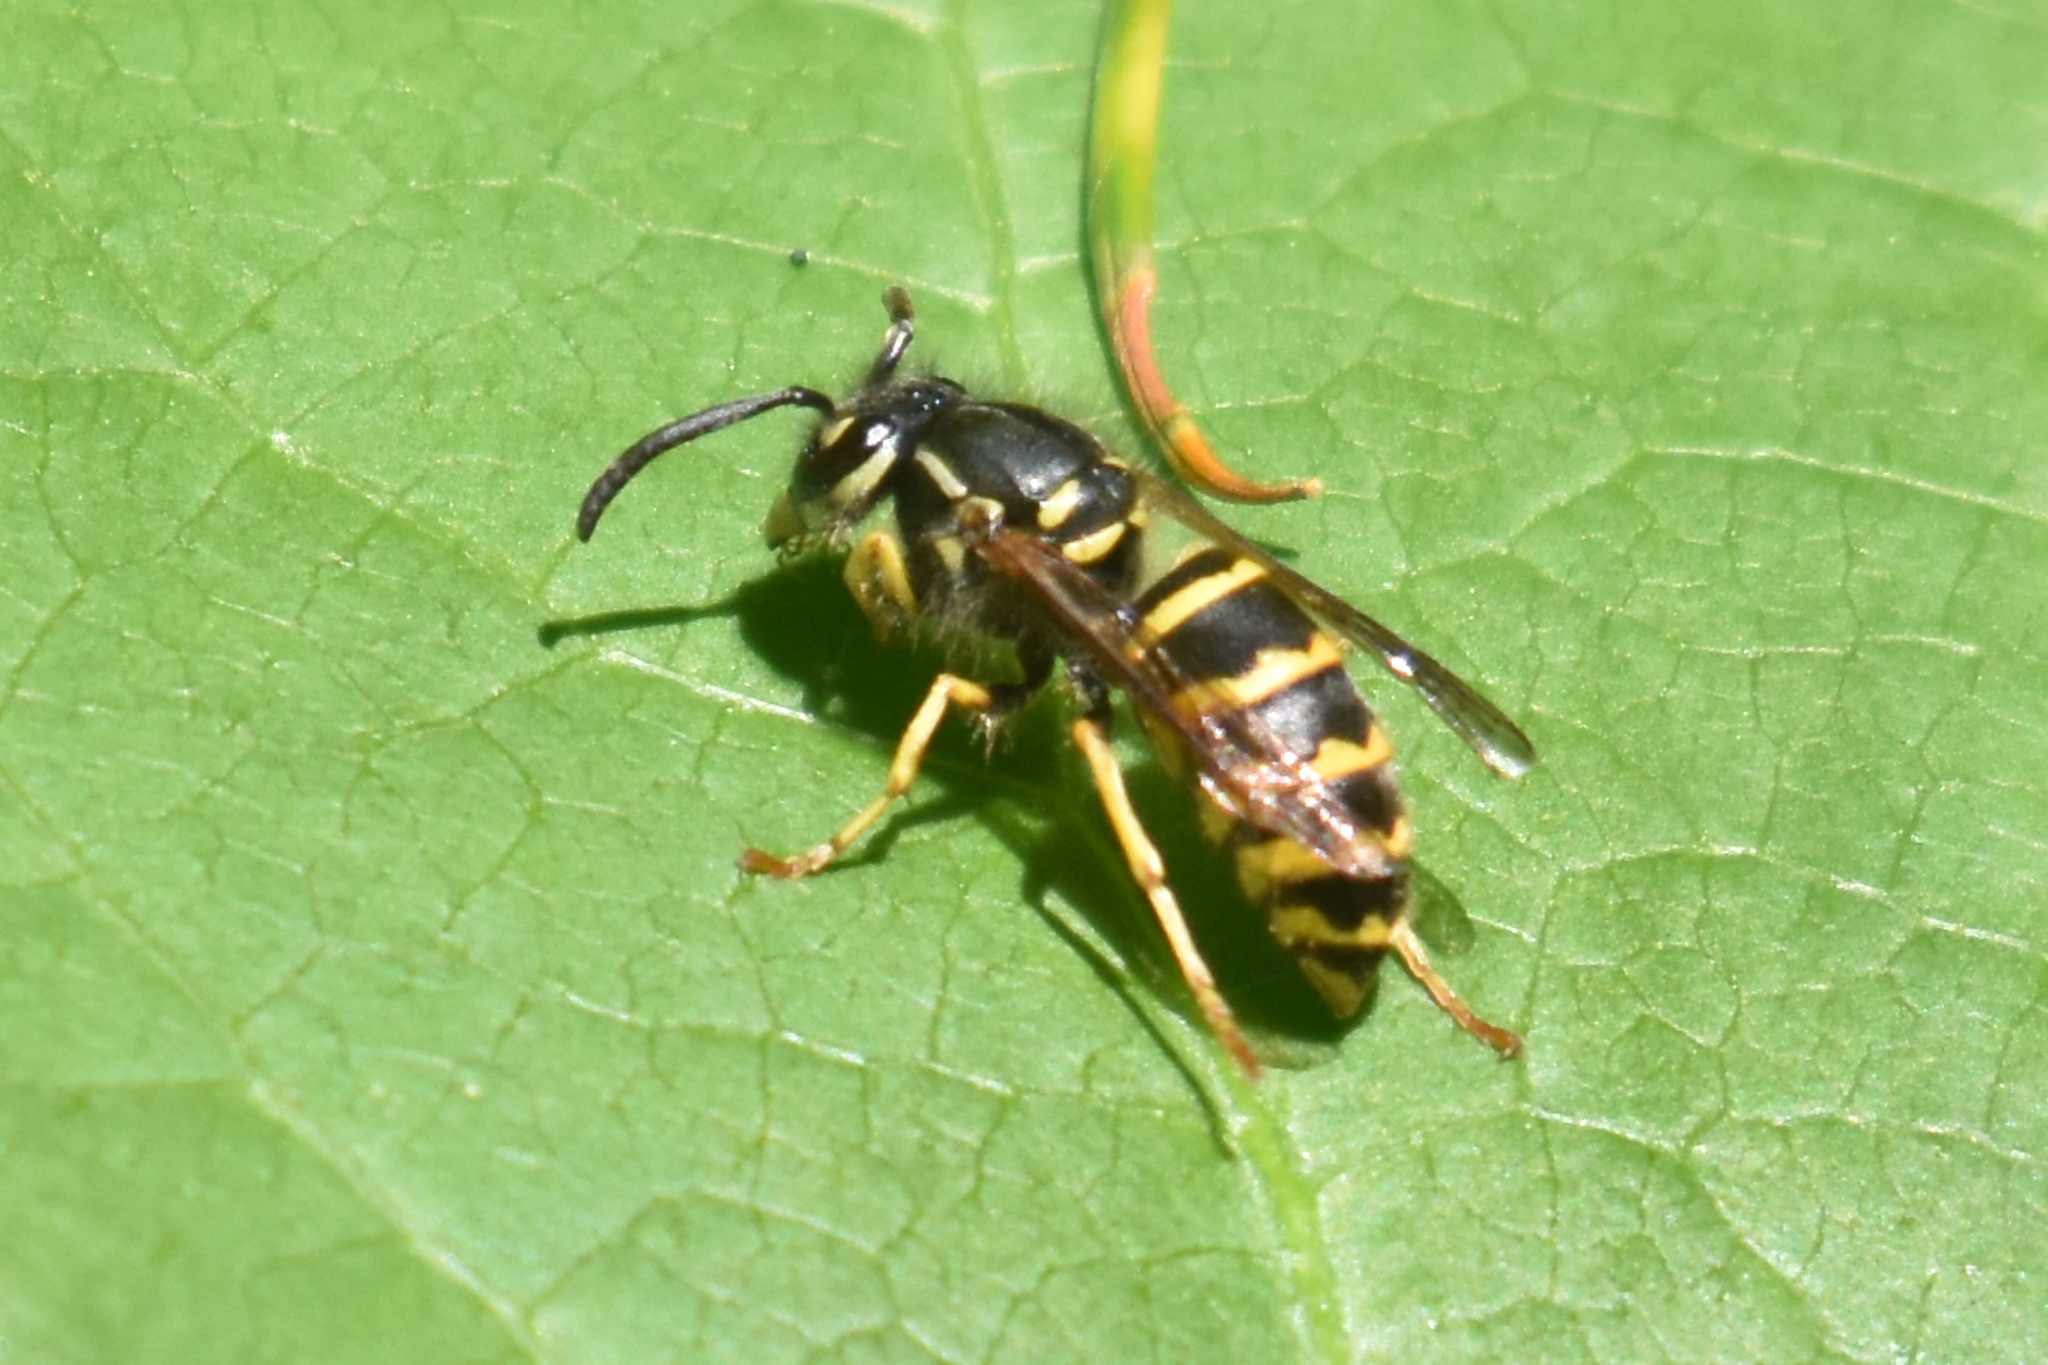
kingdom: Animalia
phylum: Arthropoda
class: Insecta
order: Hymenoptera
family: Vespidae
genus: Vespula
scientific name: Vespula alascensis
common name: Alaska yellowjacket
